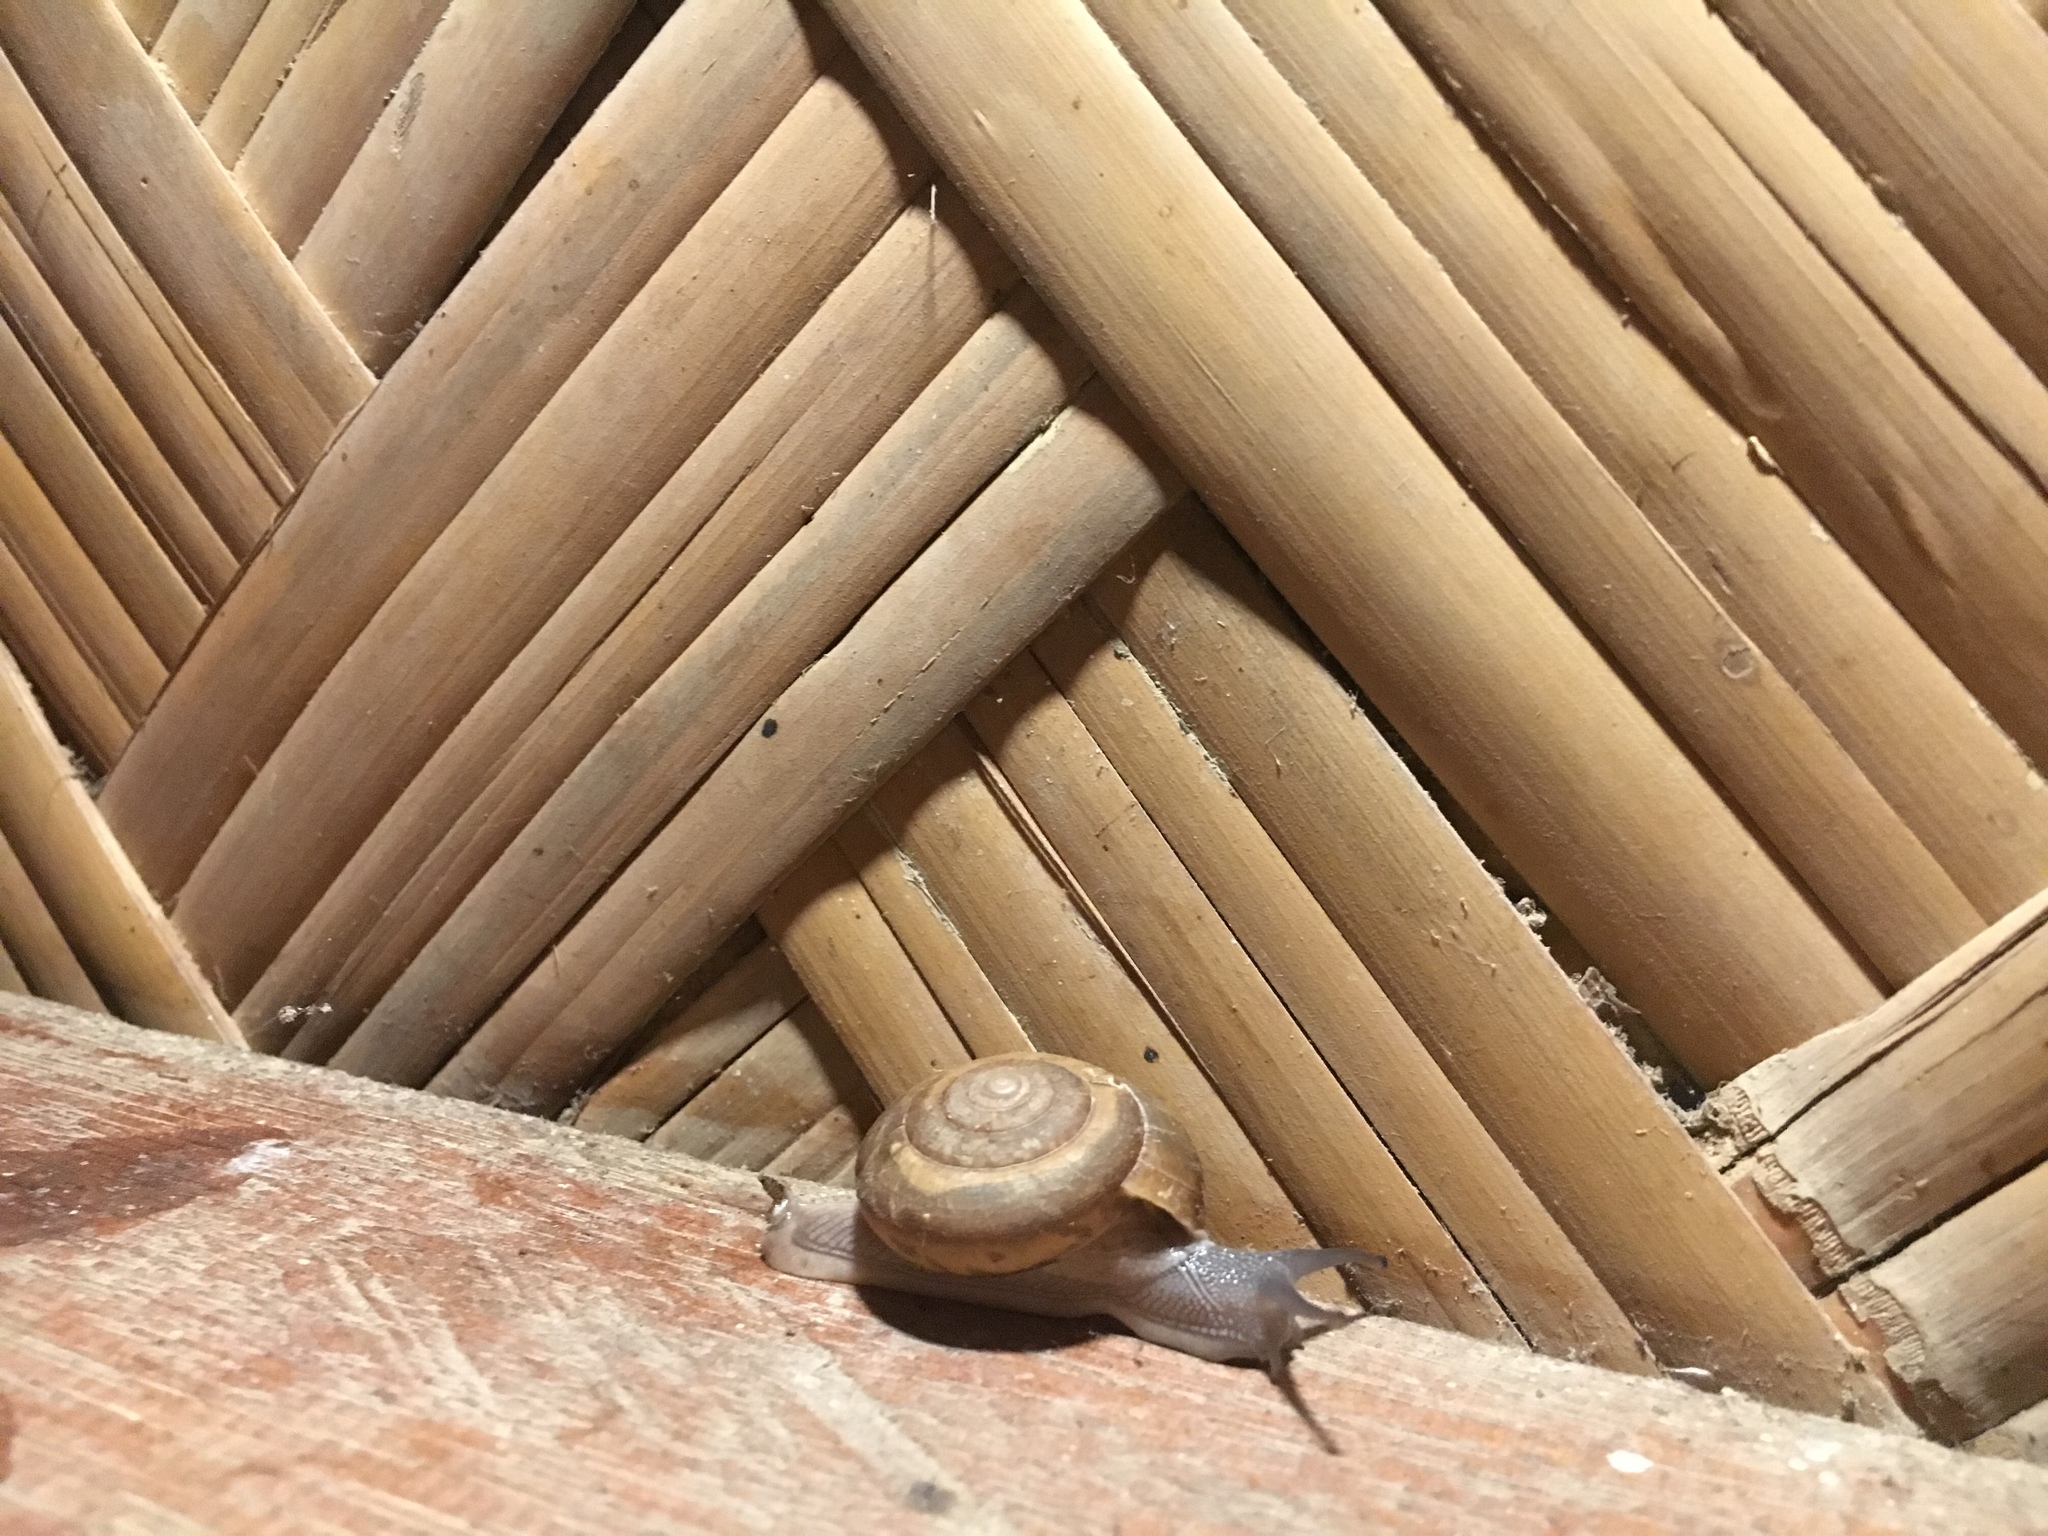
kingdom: Animalia
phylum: Mollusca
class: Gastropoda
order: Stylommatophora
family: Ariophantidae
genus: Sarika
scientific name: Sarika siamensis
